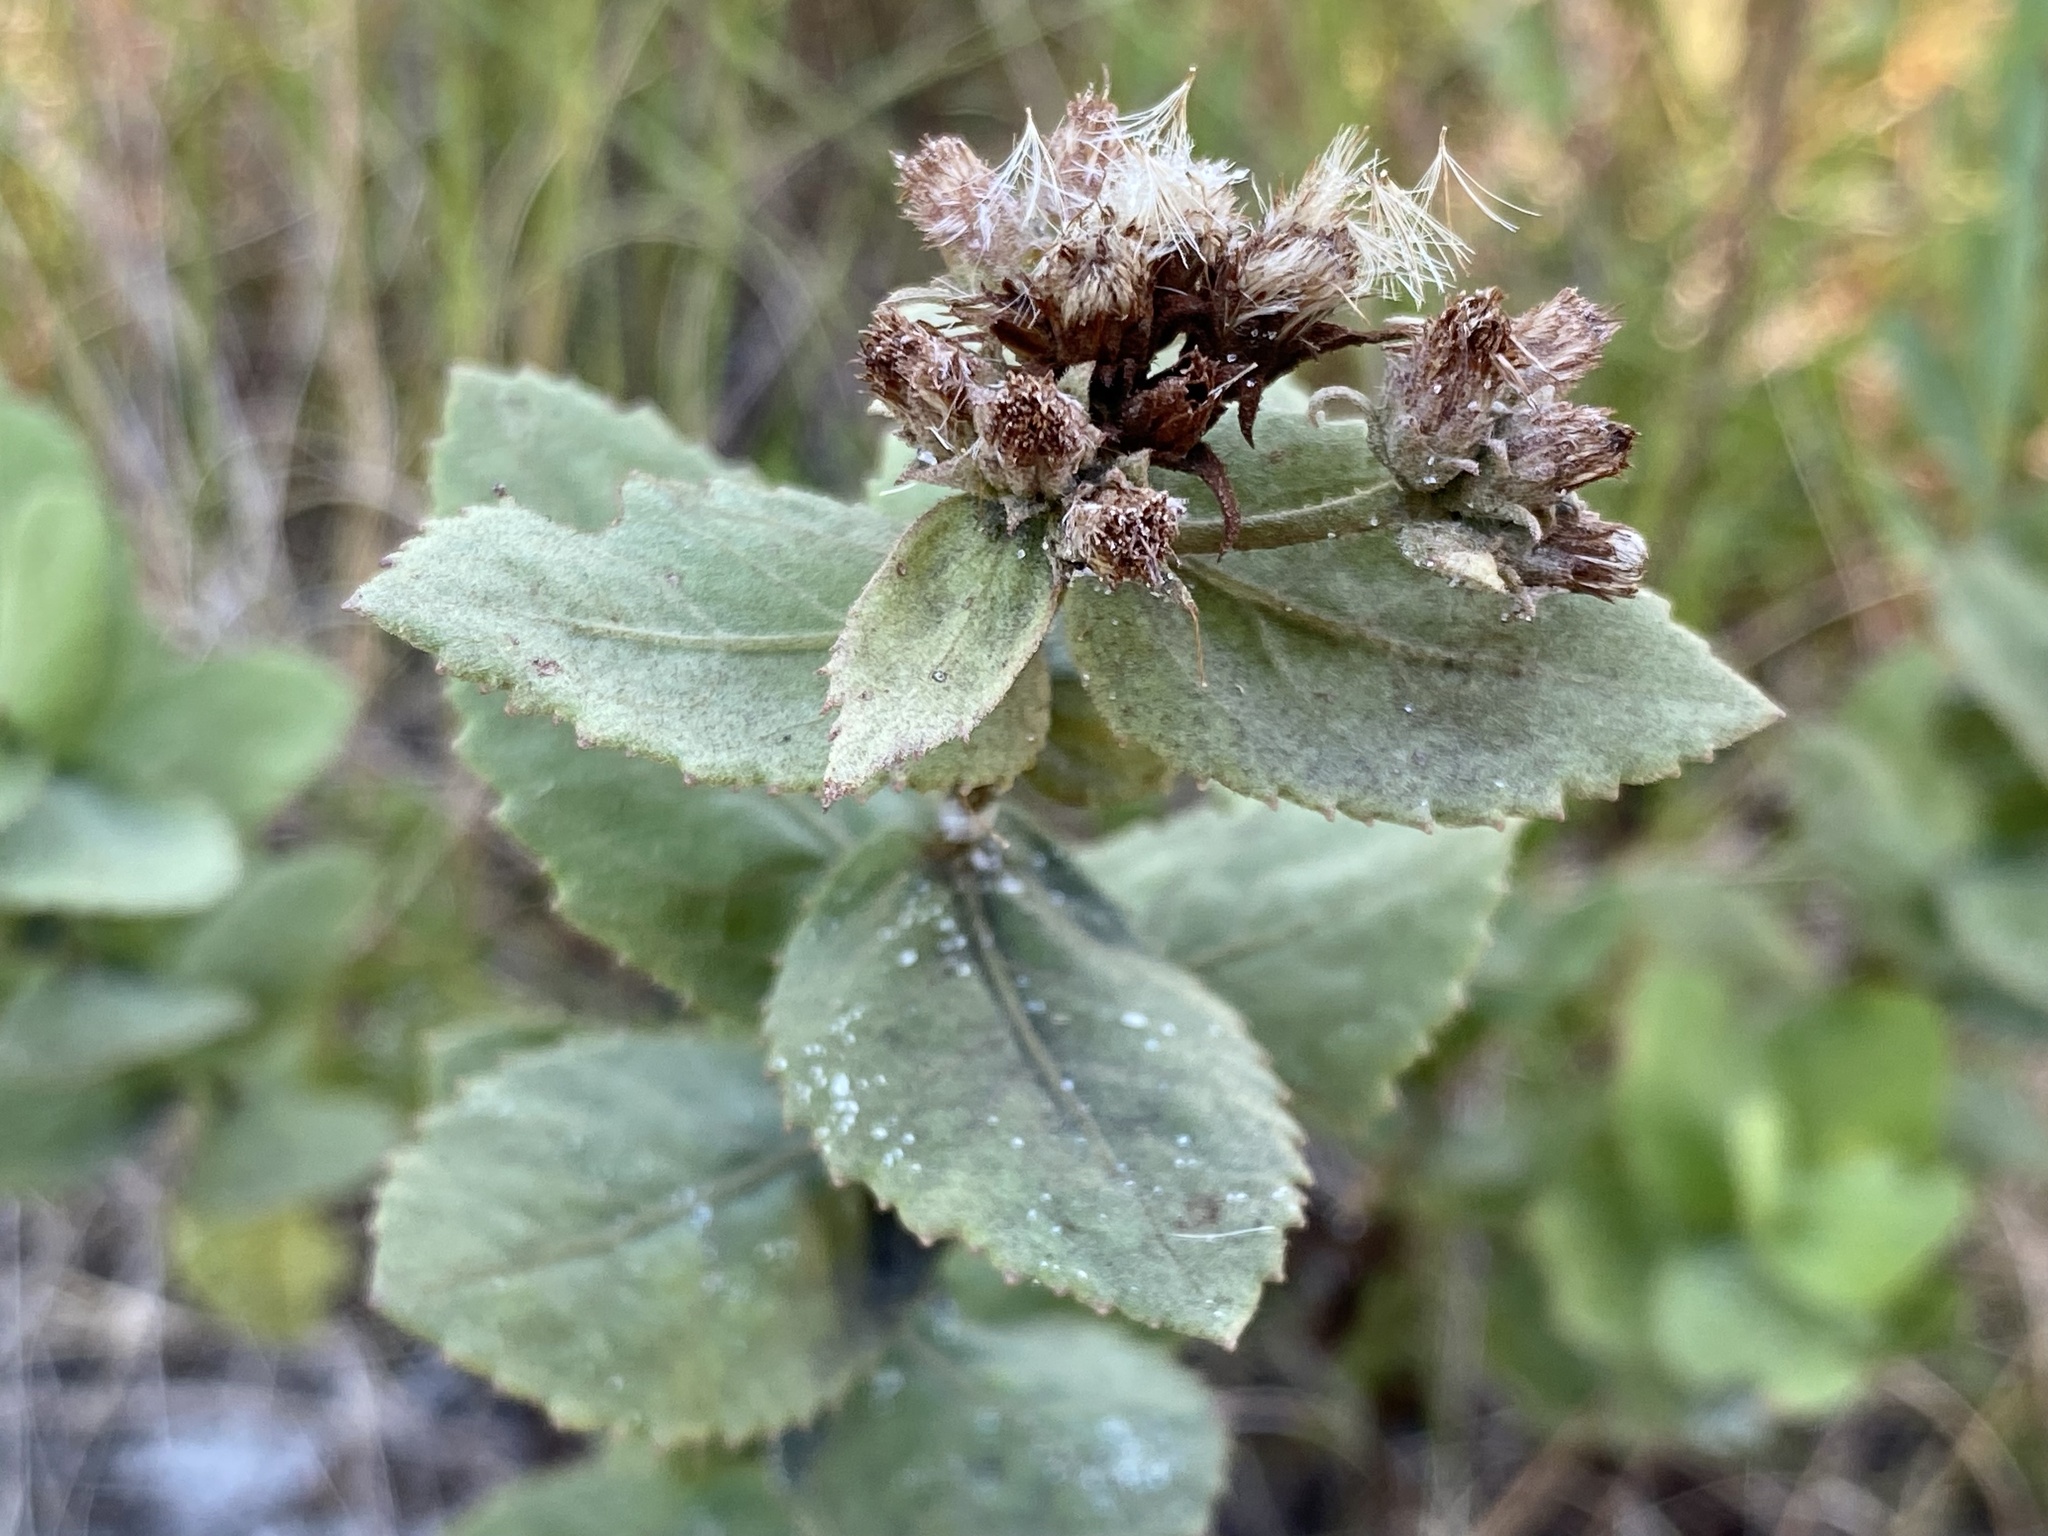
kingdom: Plantae
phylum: Tracheophyta
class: Magnoliopsida
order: Asterales
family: Asteraceae
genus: Pluchea
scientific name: Pluchea foetida
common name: Stinking camphorweed
